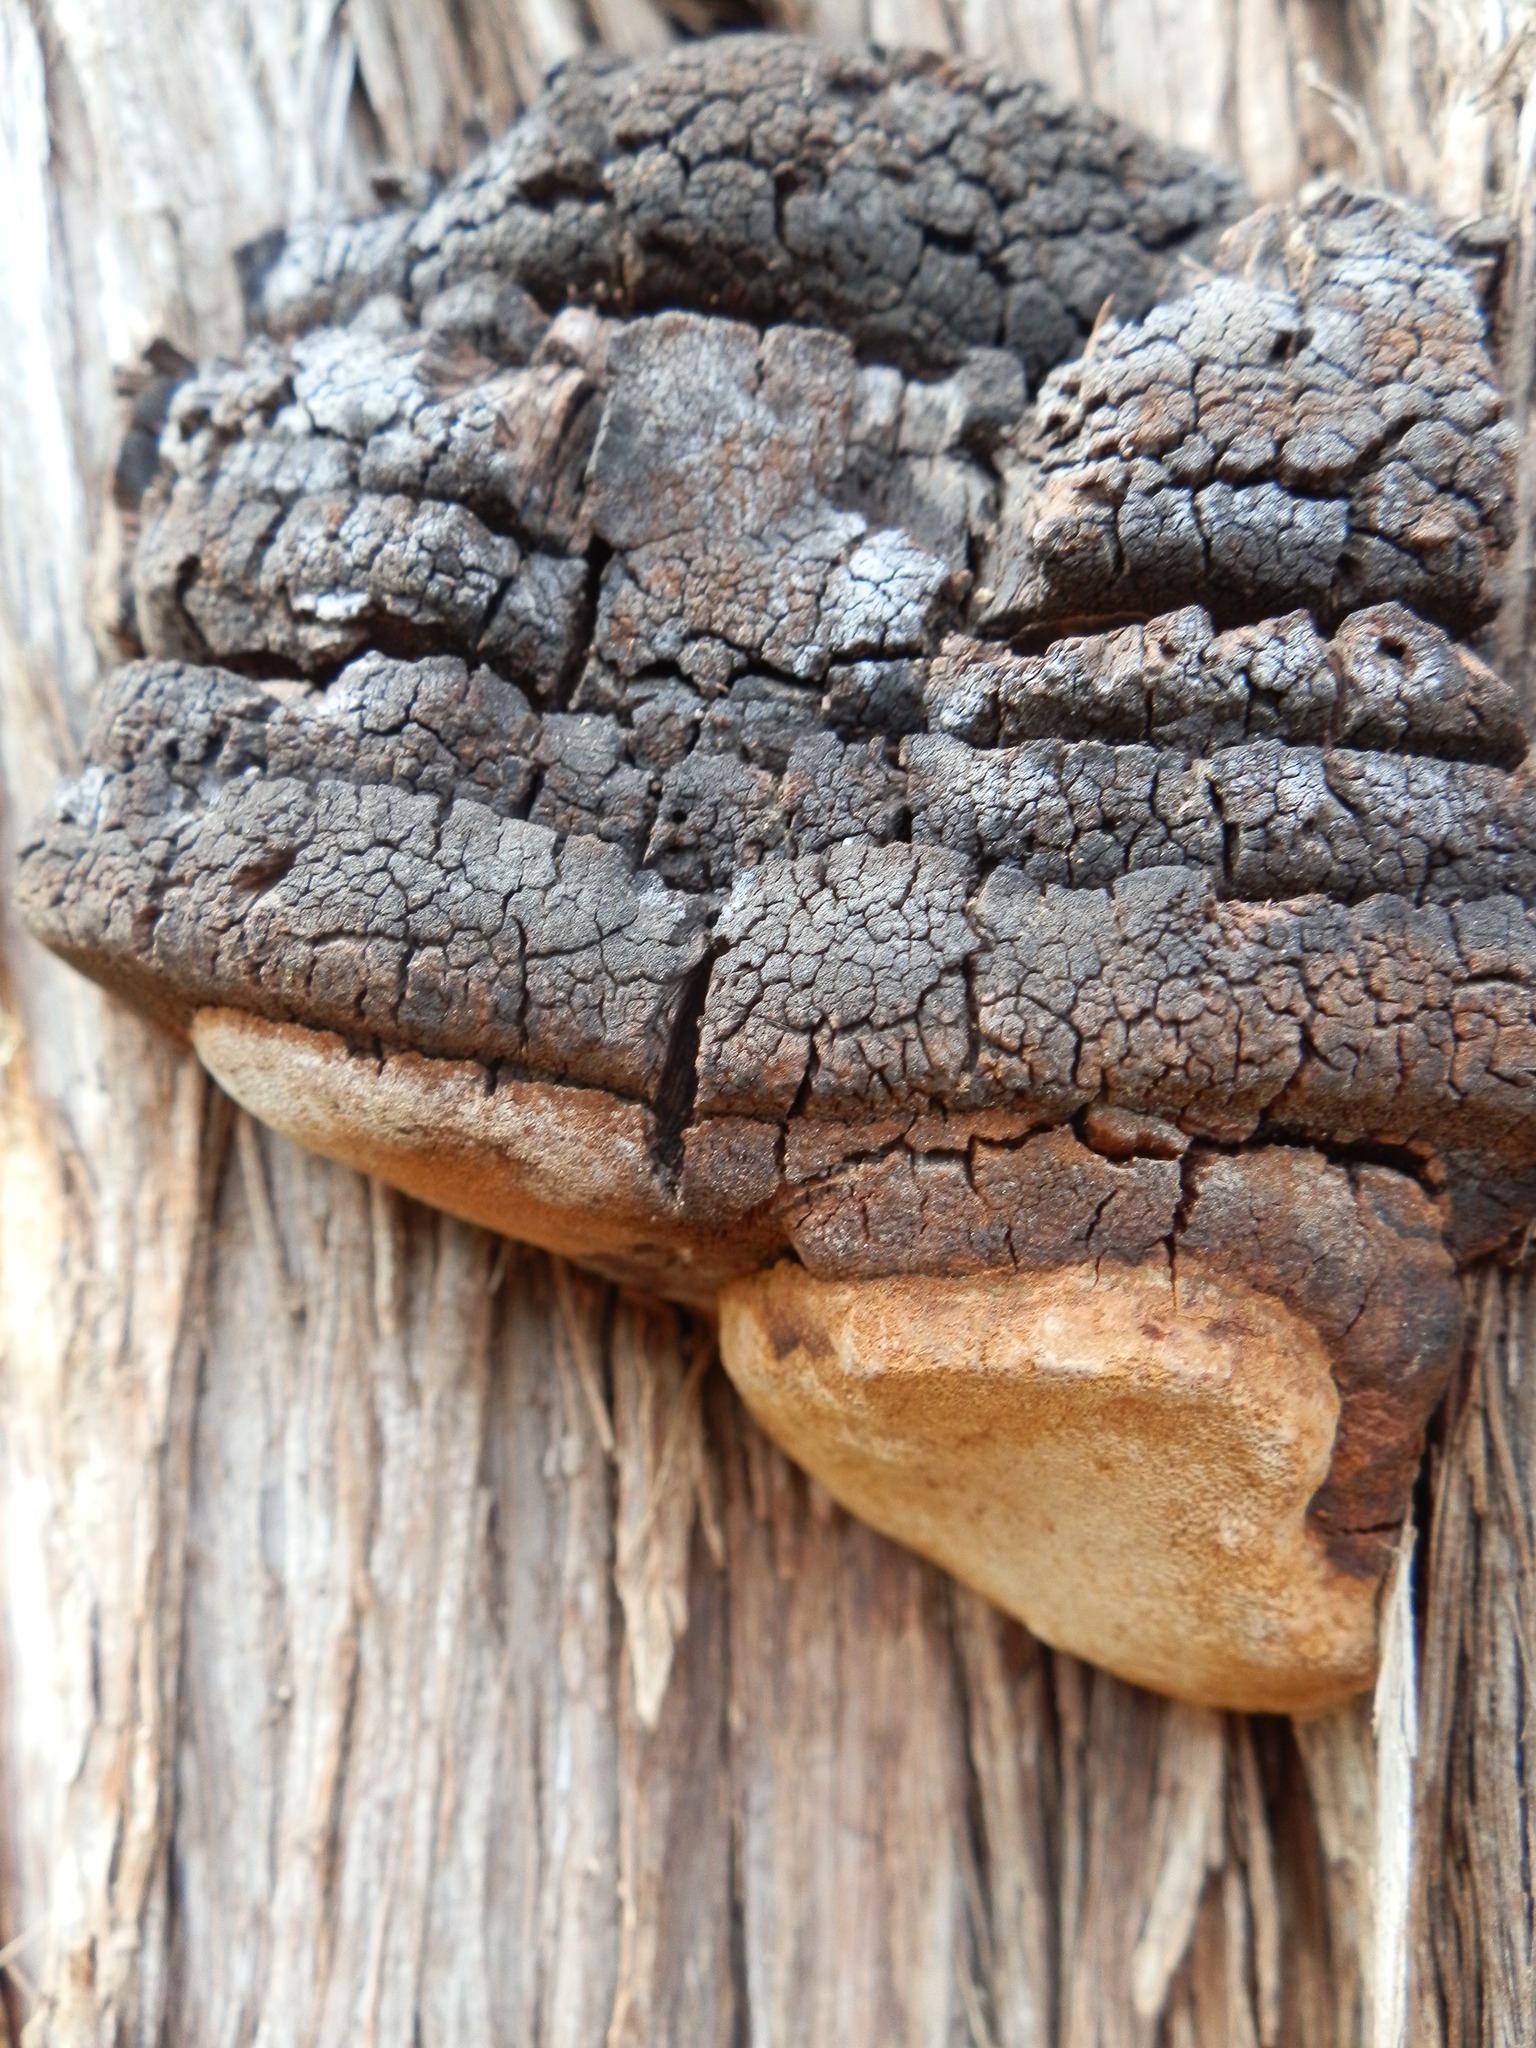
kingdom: Fungi
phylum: Basidiomycota
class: Agaricomycetes
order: Hymenochaetales
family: Hymenochaetaceae
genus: Fomitiporia
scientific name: Fomitiporia texana
